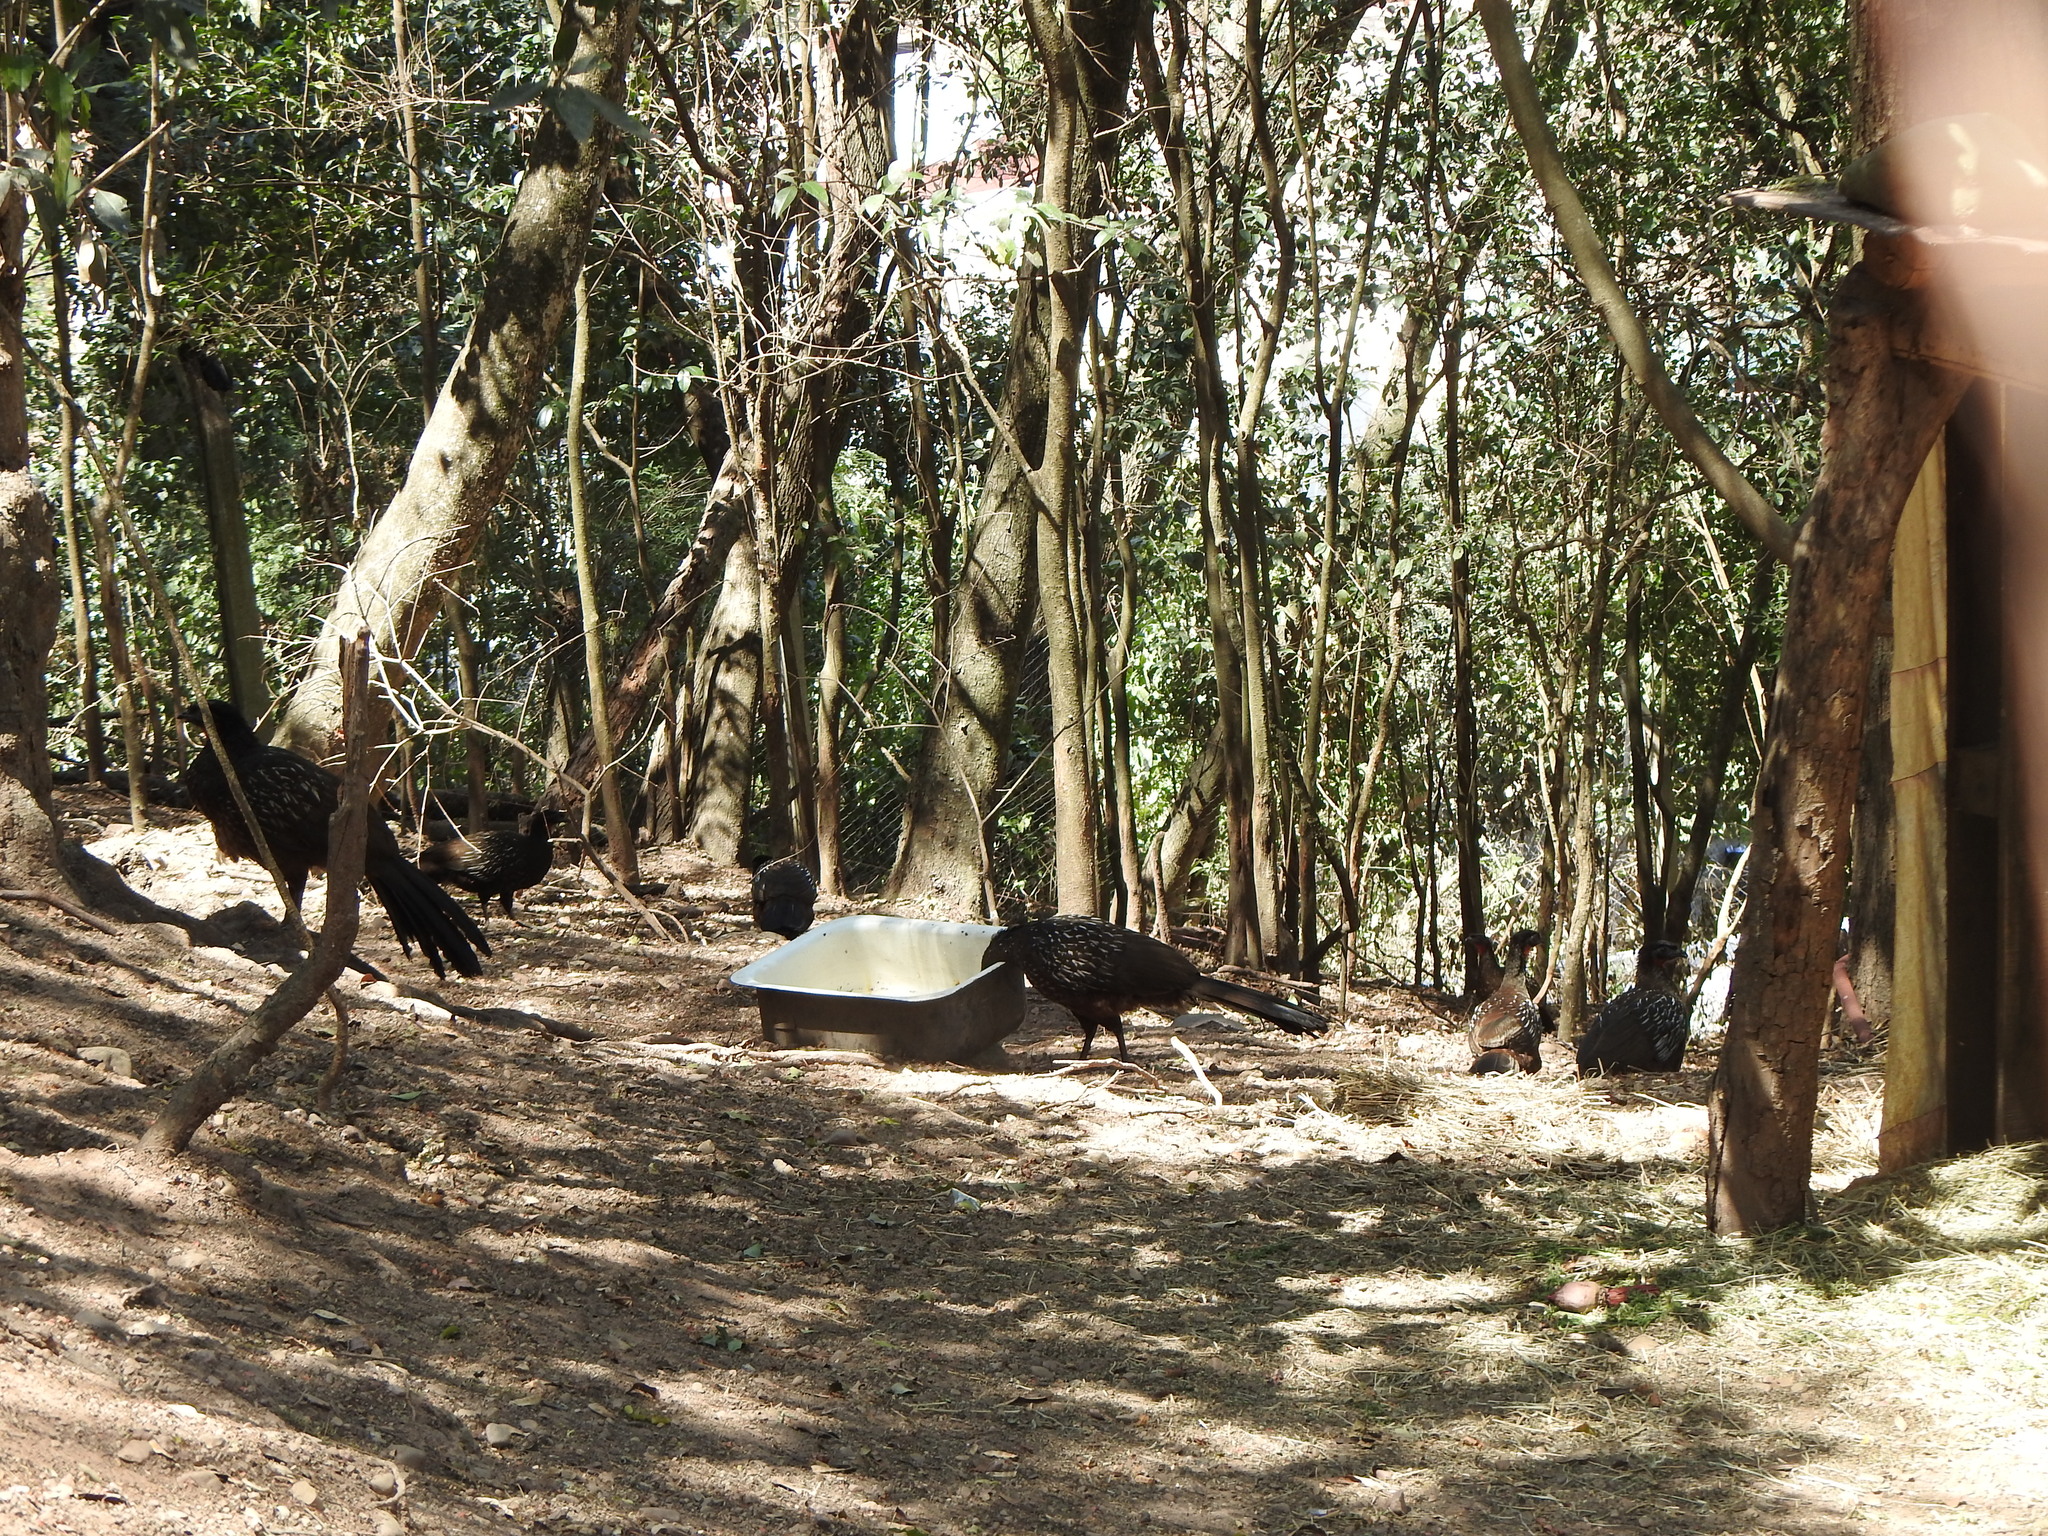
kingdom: Animalia
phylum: Chordata
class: Aves
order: Galliformes
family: Cracidae
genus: Penelope
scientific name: Penelope bridgesi
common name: Yungas guan
